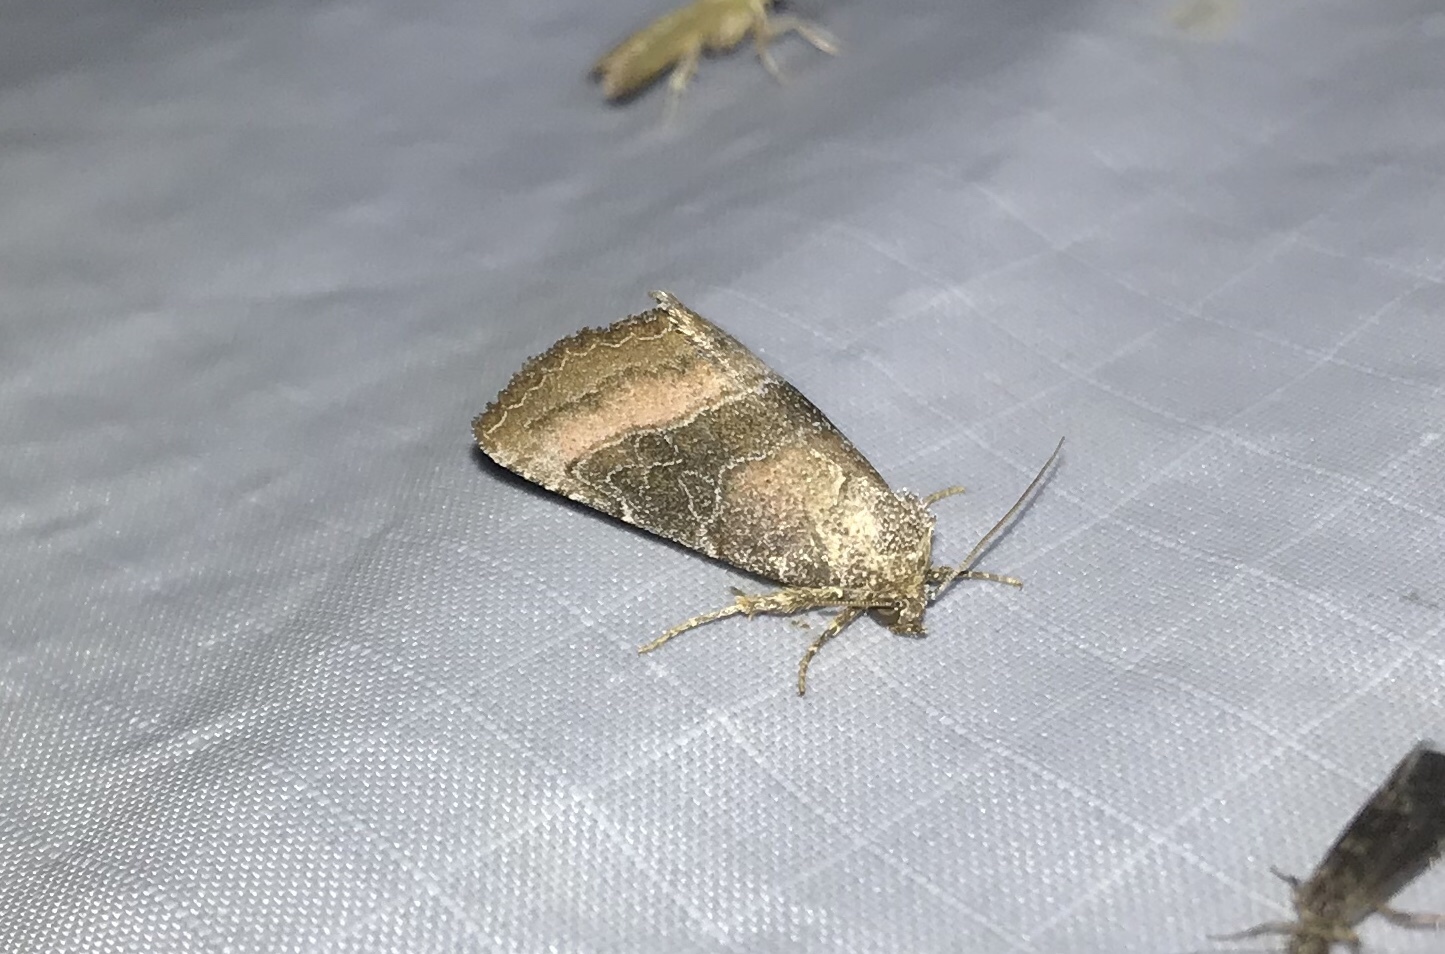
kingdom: Animalia
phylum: Arthropoda
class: Insecta
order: Lepidoptera
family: Noctuidae
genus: Ogdoconta
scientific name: Ogdoconta cinereola
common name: Common pinkband
